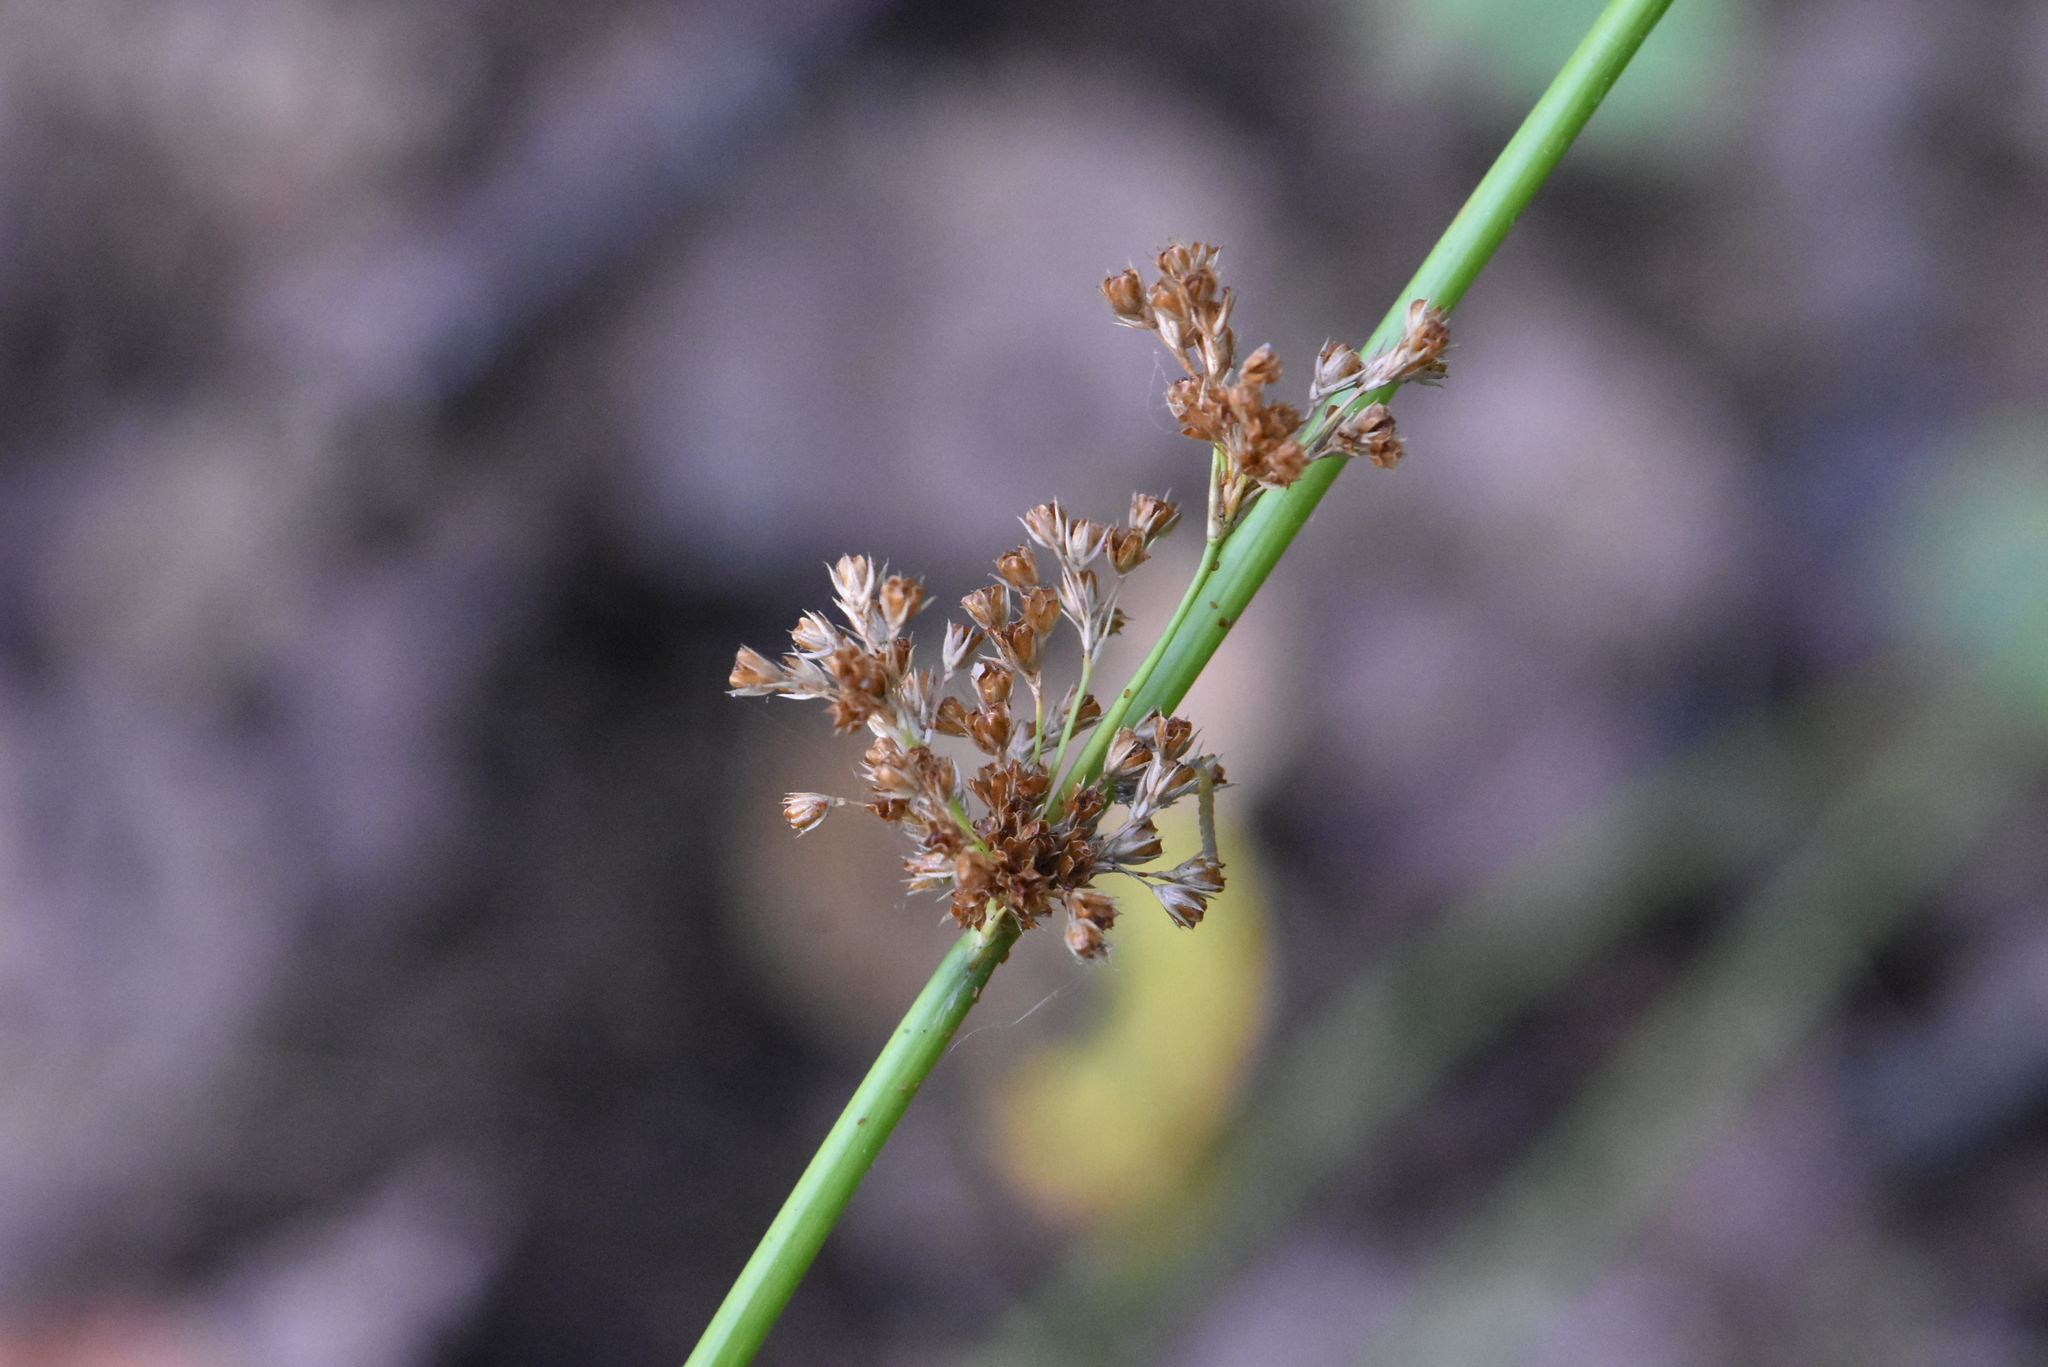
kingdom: Plantae
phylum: Tracheophyta
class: Liliopsida
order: Poales
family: Juncaceae
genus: Juncus
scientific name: Juncus effusus
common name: Soft rush
